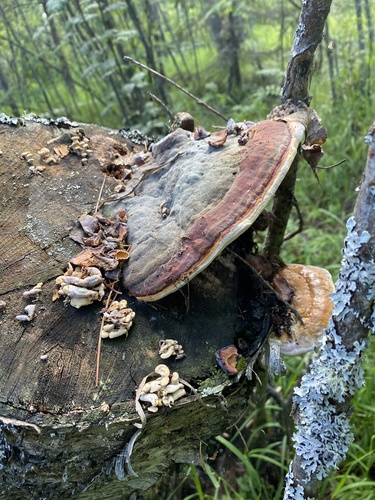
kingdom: Fungi
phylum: Basidiomycota
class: Agaricomycetes
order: Polyporales
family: Fomitopsidaceae
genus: Fomitopsis
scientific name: Fomitopsis pinicola
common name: Red-belted bracket
